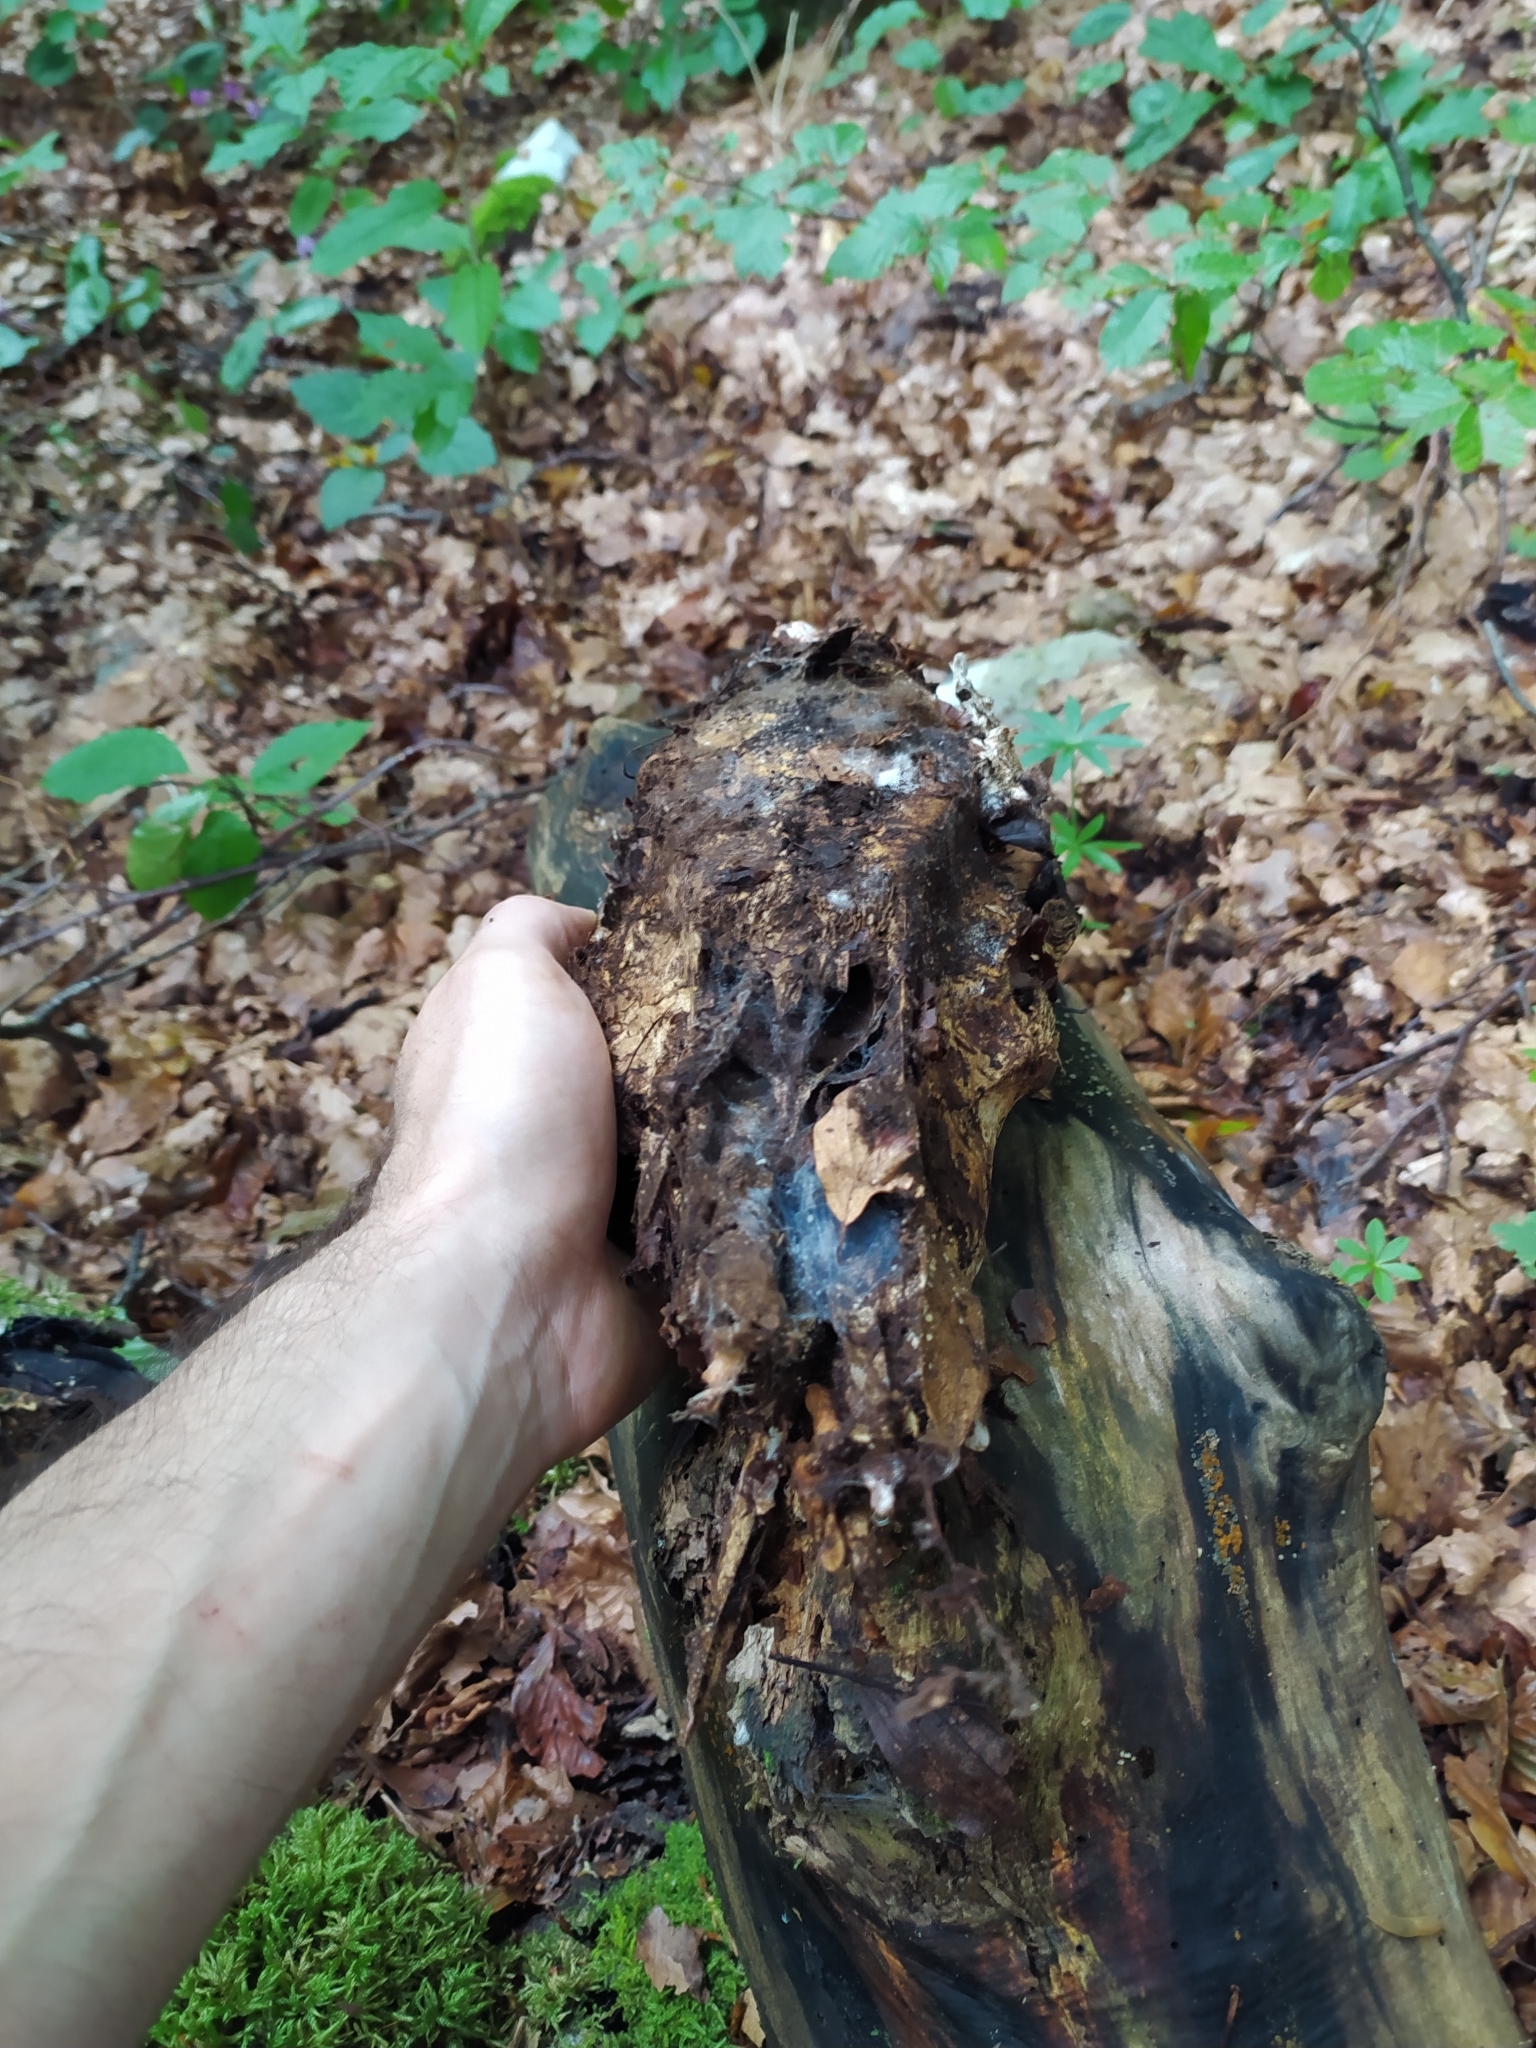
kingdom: Animalia
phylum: Chordata
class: Mammalia
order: Artiodactyla
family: Suidae
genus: Sus
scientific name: Sus scrofa
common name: Wild boar
